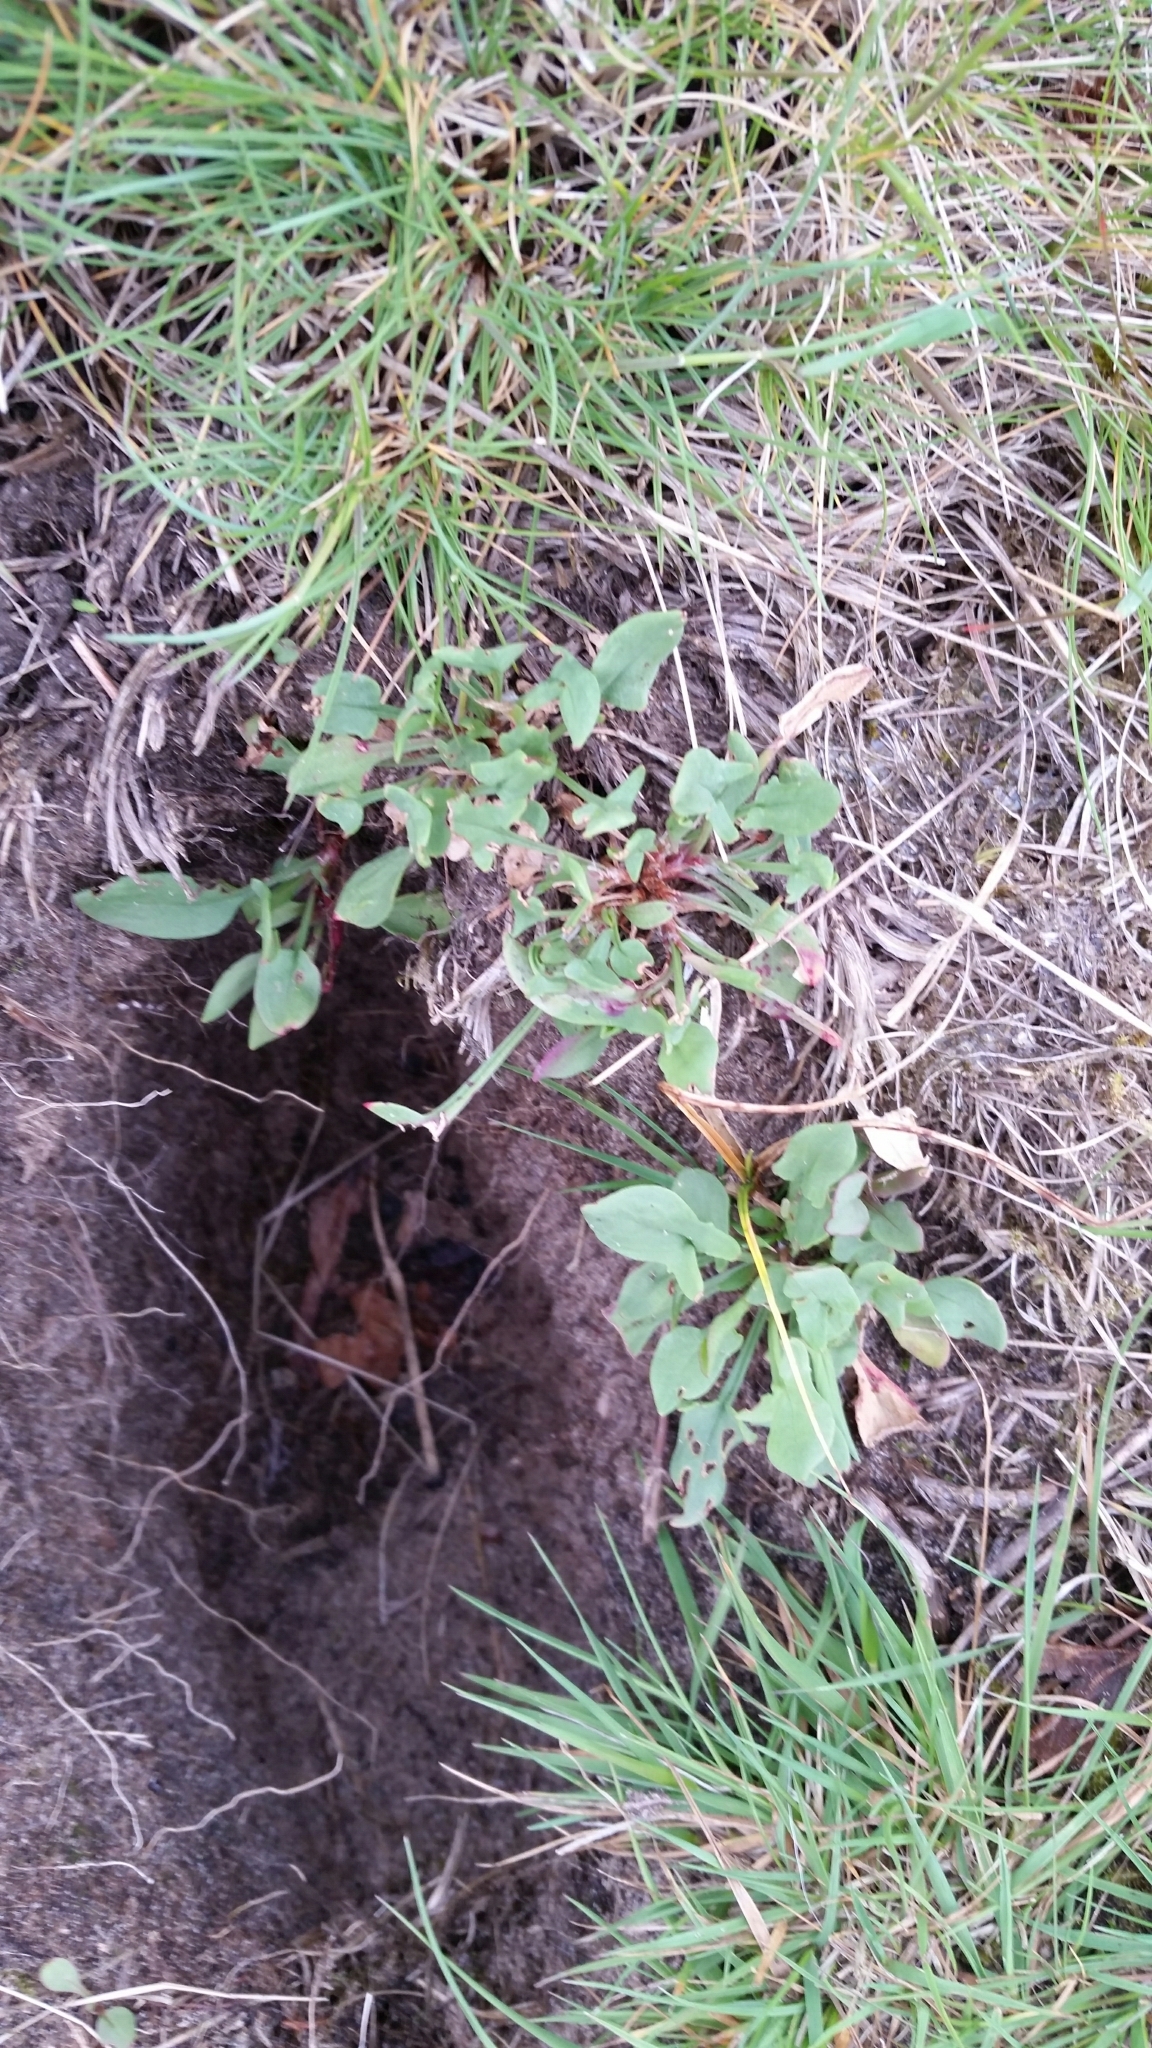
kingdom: Plantae
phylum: Tracheophyta
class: Magnoliopsida
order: Caryophyllales
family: Polygonaceae
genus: Rumex
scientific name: Rumex acetosella
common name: Common sheep sorrel
